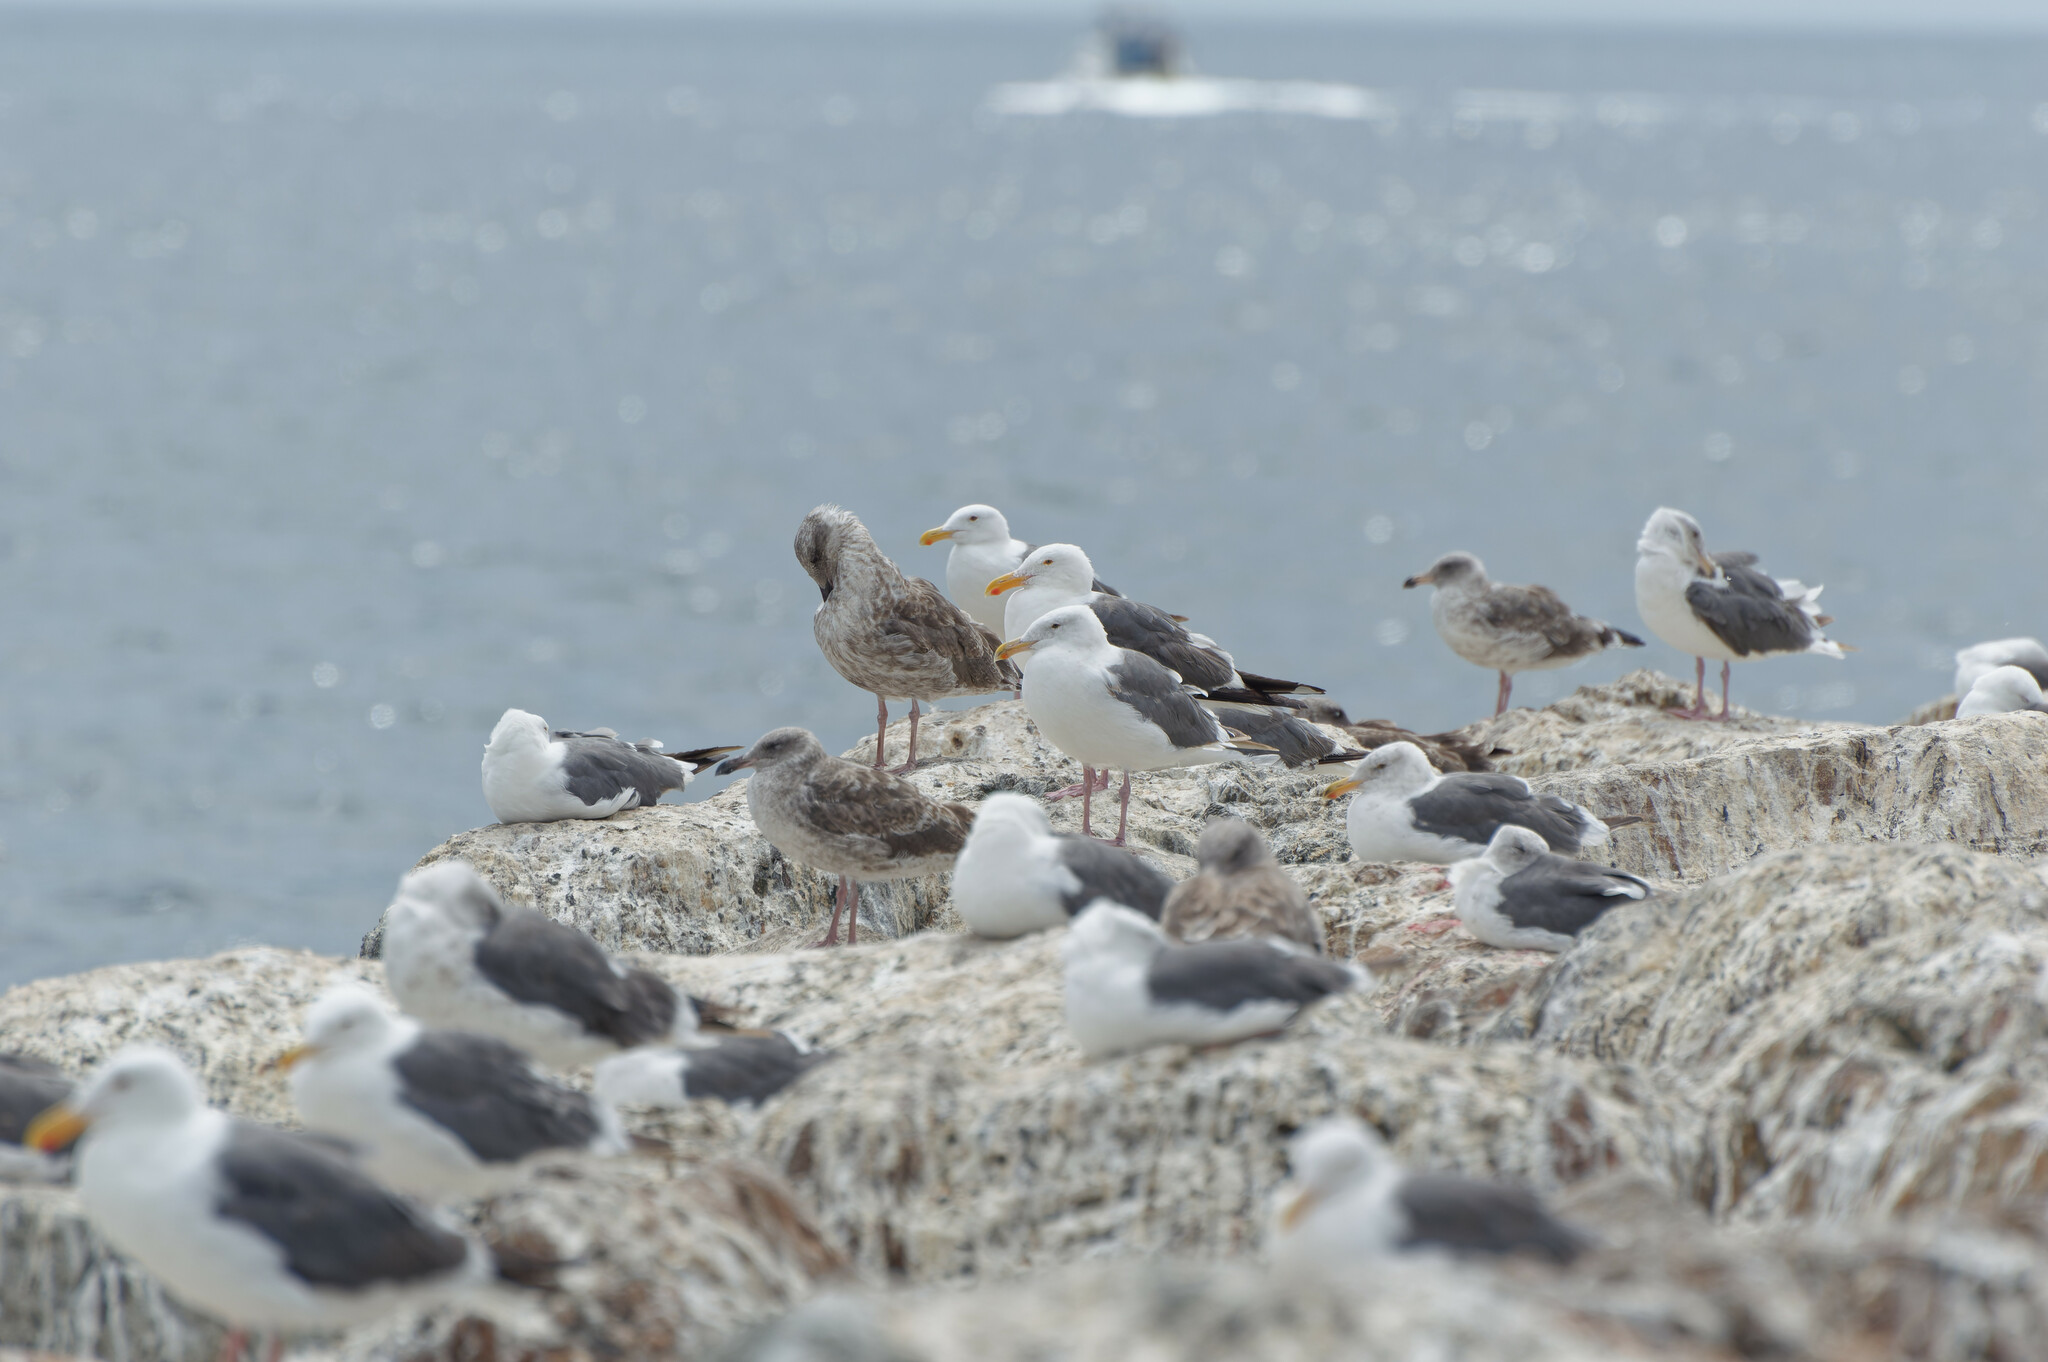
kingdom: Animalia
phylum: Chordata
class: Aves
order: Charadriiformes
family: Laridae
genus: Larus
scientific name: Larus occidentalis
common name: Western gull
